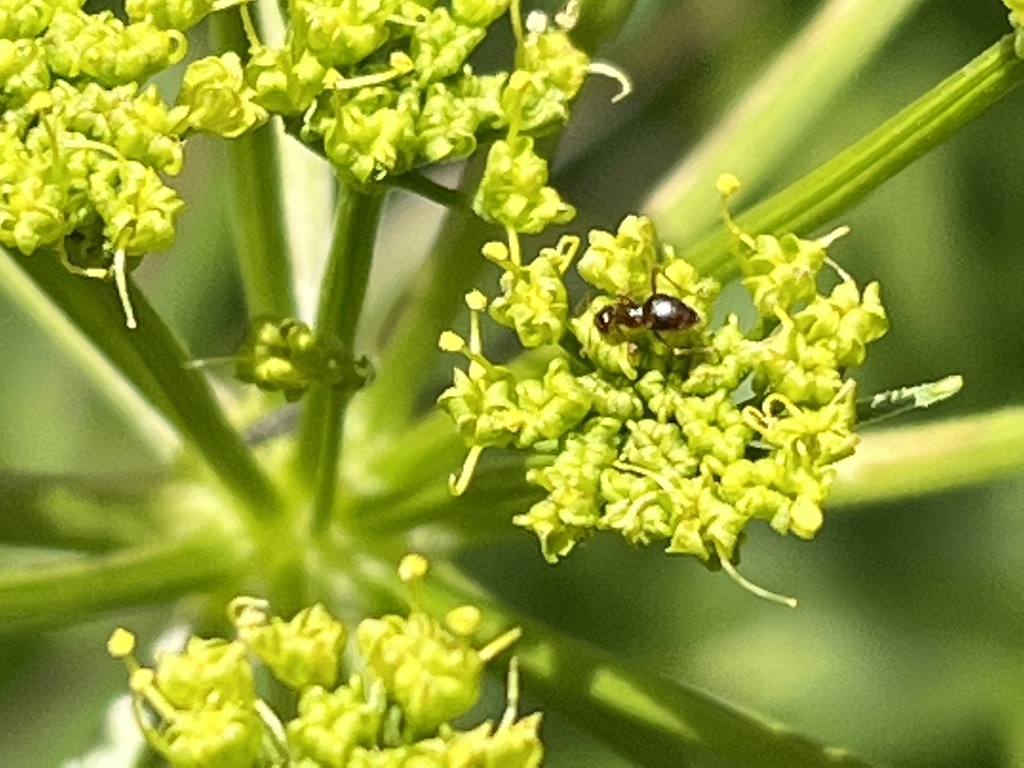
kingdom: Animalia
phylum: Arthropoda
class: Insecta
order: Hymenoptera
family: Formicidae
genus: Brachymyrmex
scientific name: Brachymyrmex patagonicus
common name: Dark rover ant
